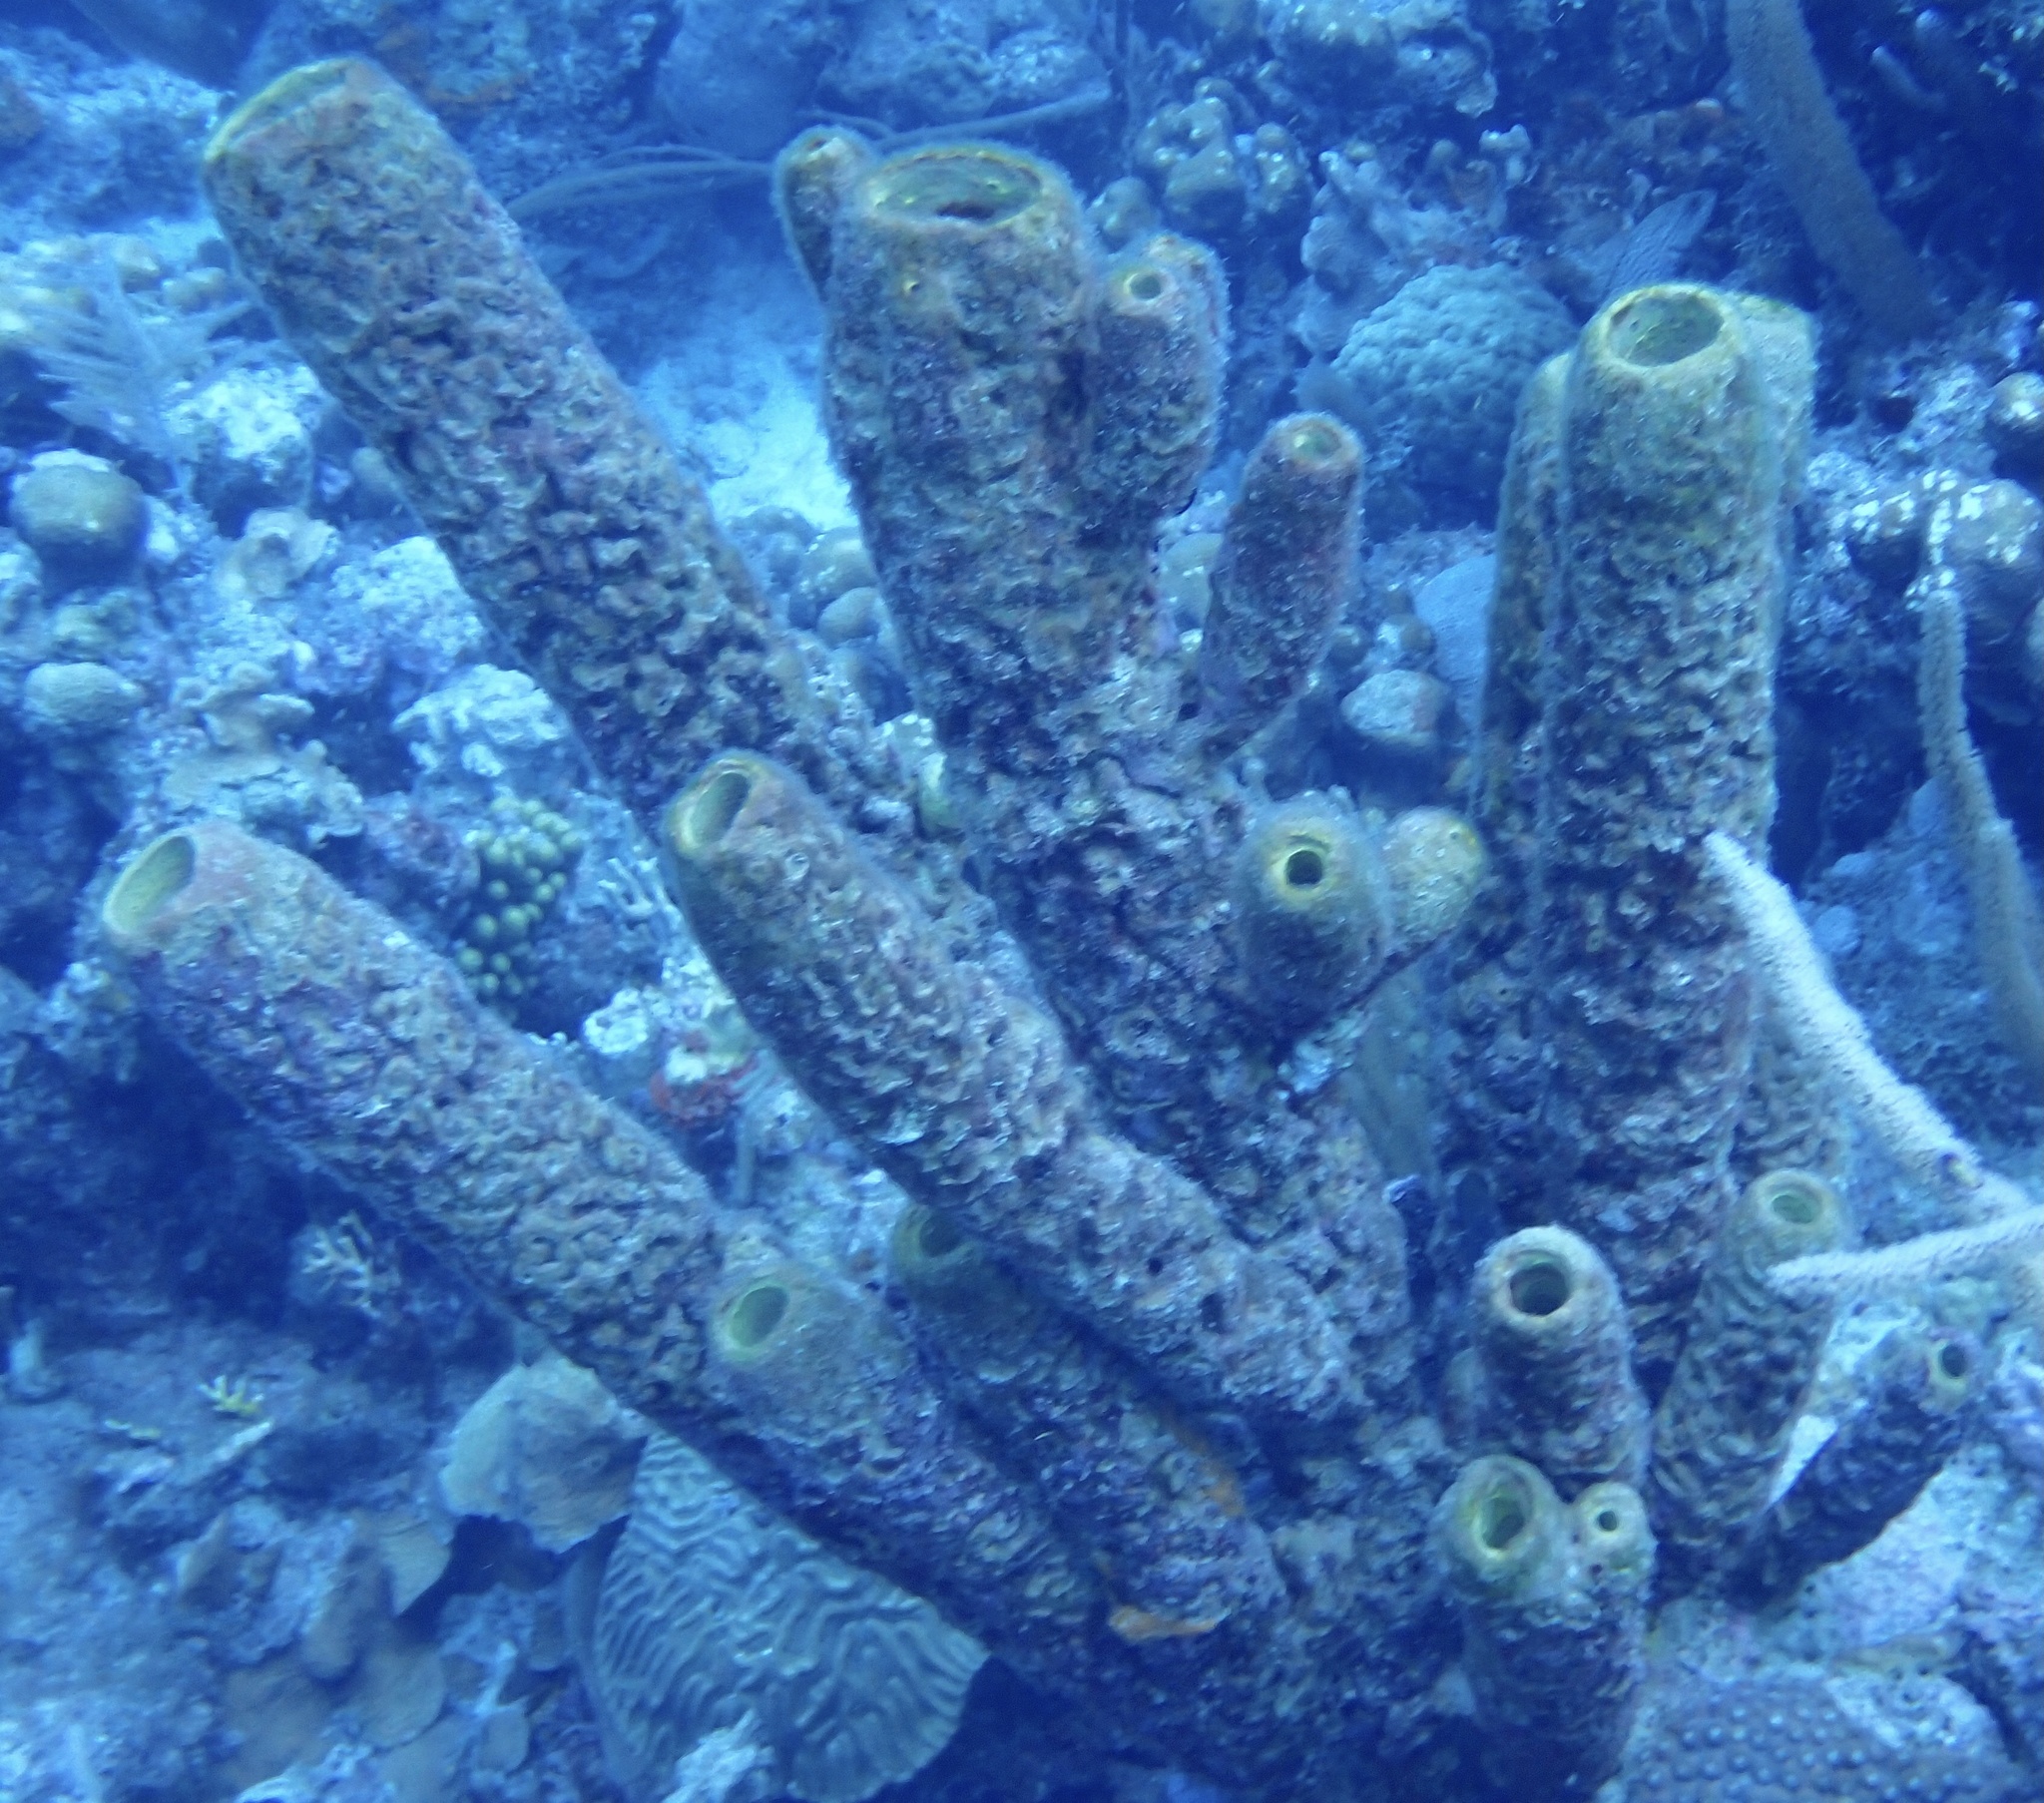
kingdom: Animalia
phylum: Porifera
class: Demospongiae
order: Verongiida
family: Aplysinidae
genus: Aplysina
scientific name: Aplysina archeri
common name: Stove-pipe sponge
